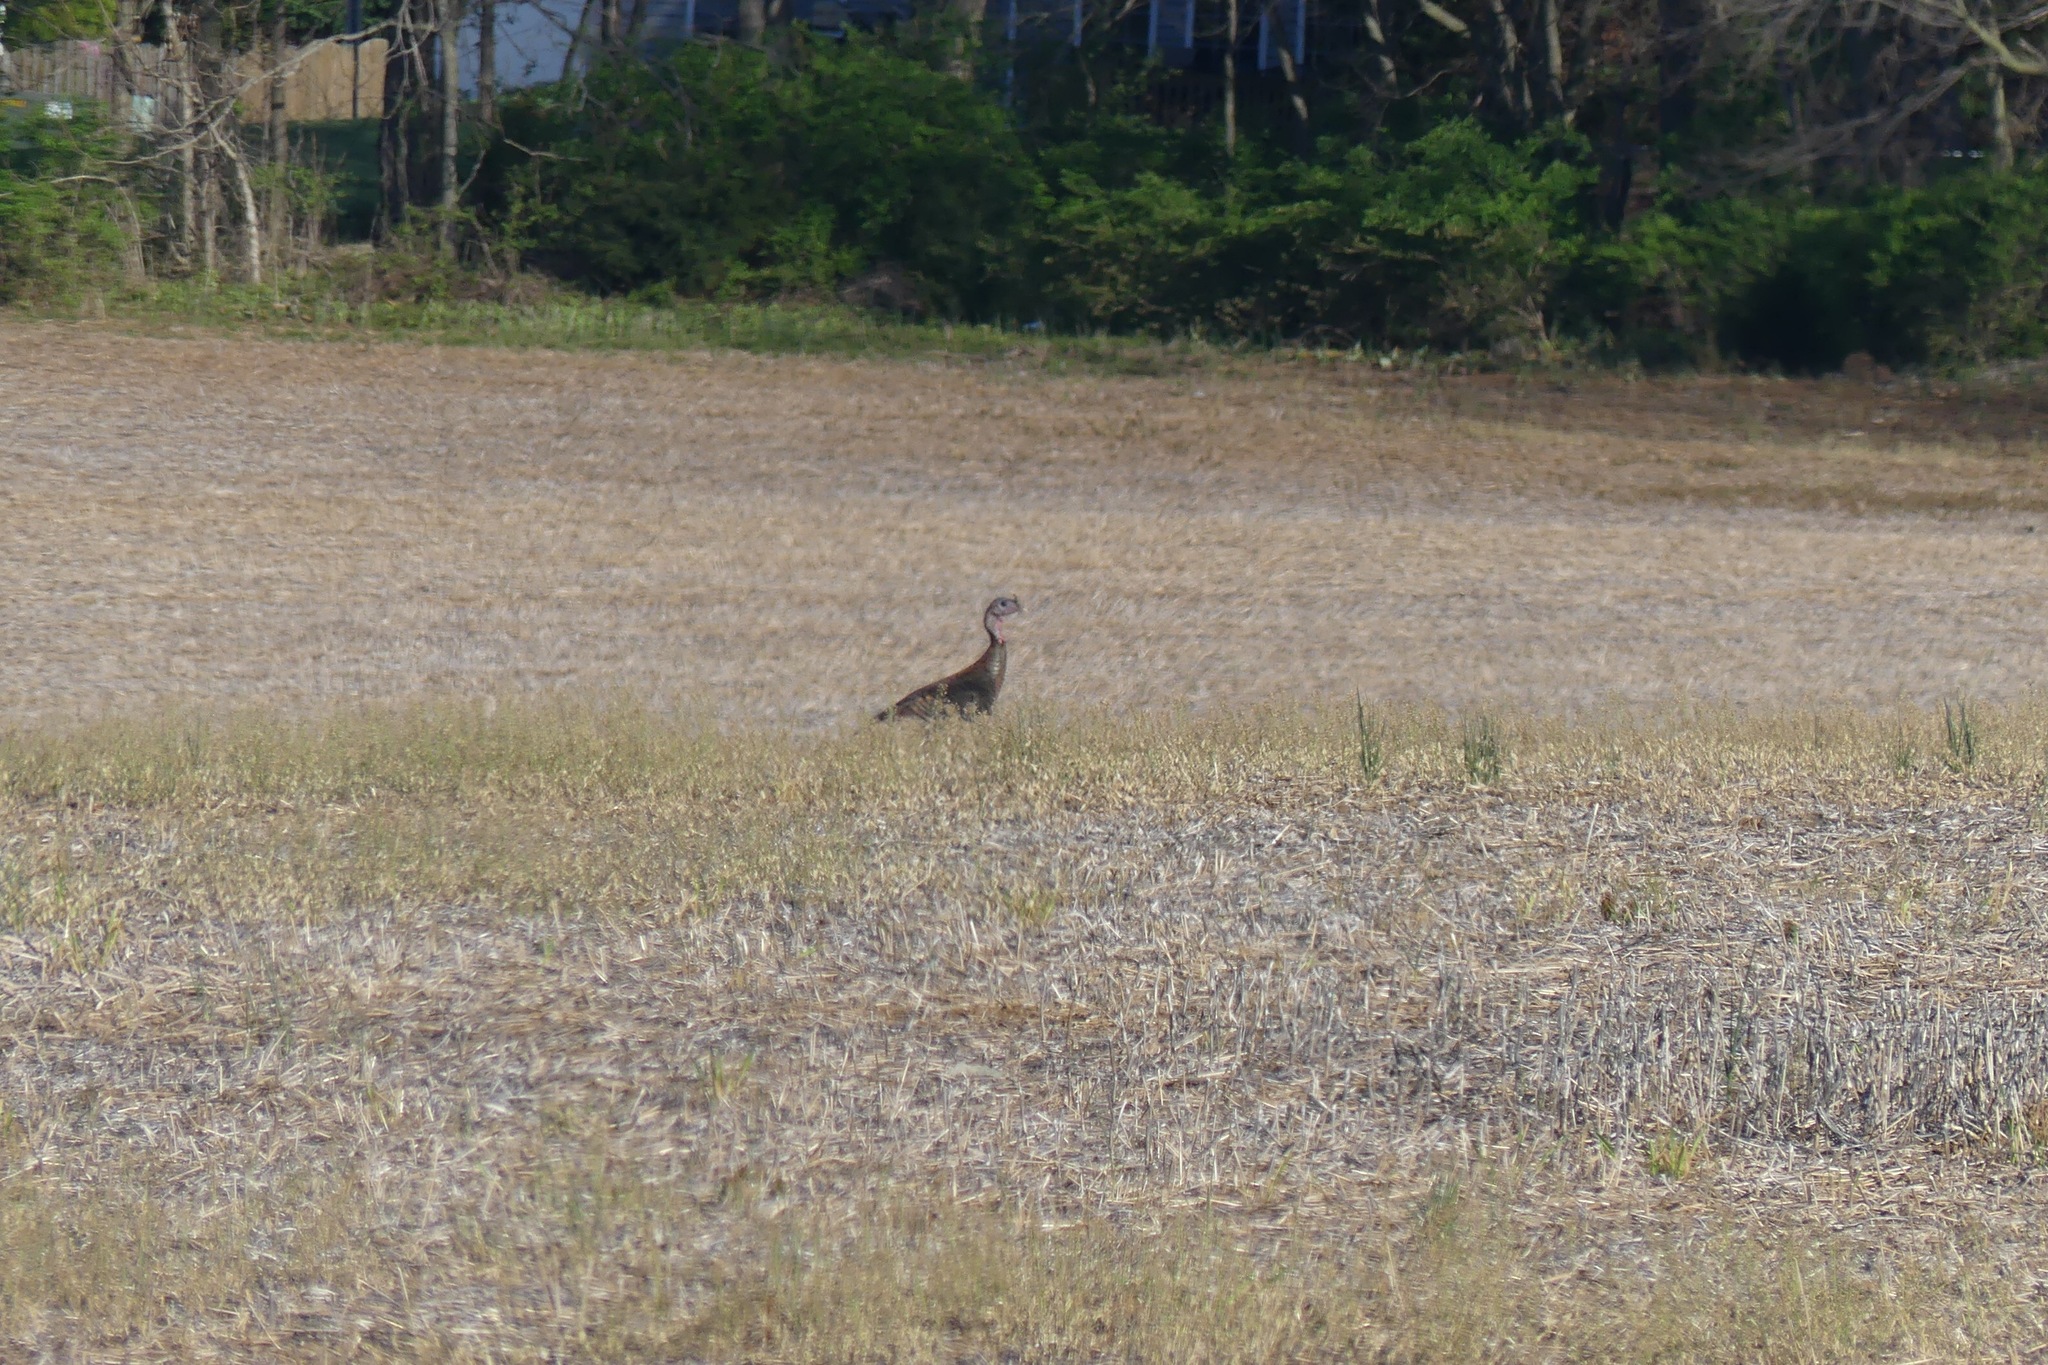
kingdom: Animalia
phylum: Chordata
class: Aves
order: Galliformes
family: Phasianidae
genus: Meleagris
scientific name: Meleagris gallopavo
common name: Wild turkey
